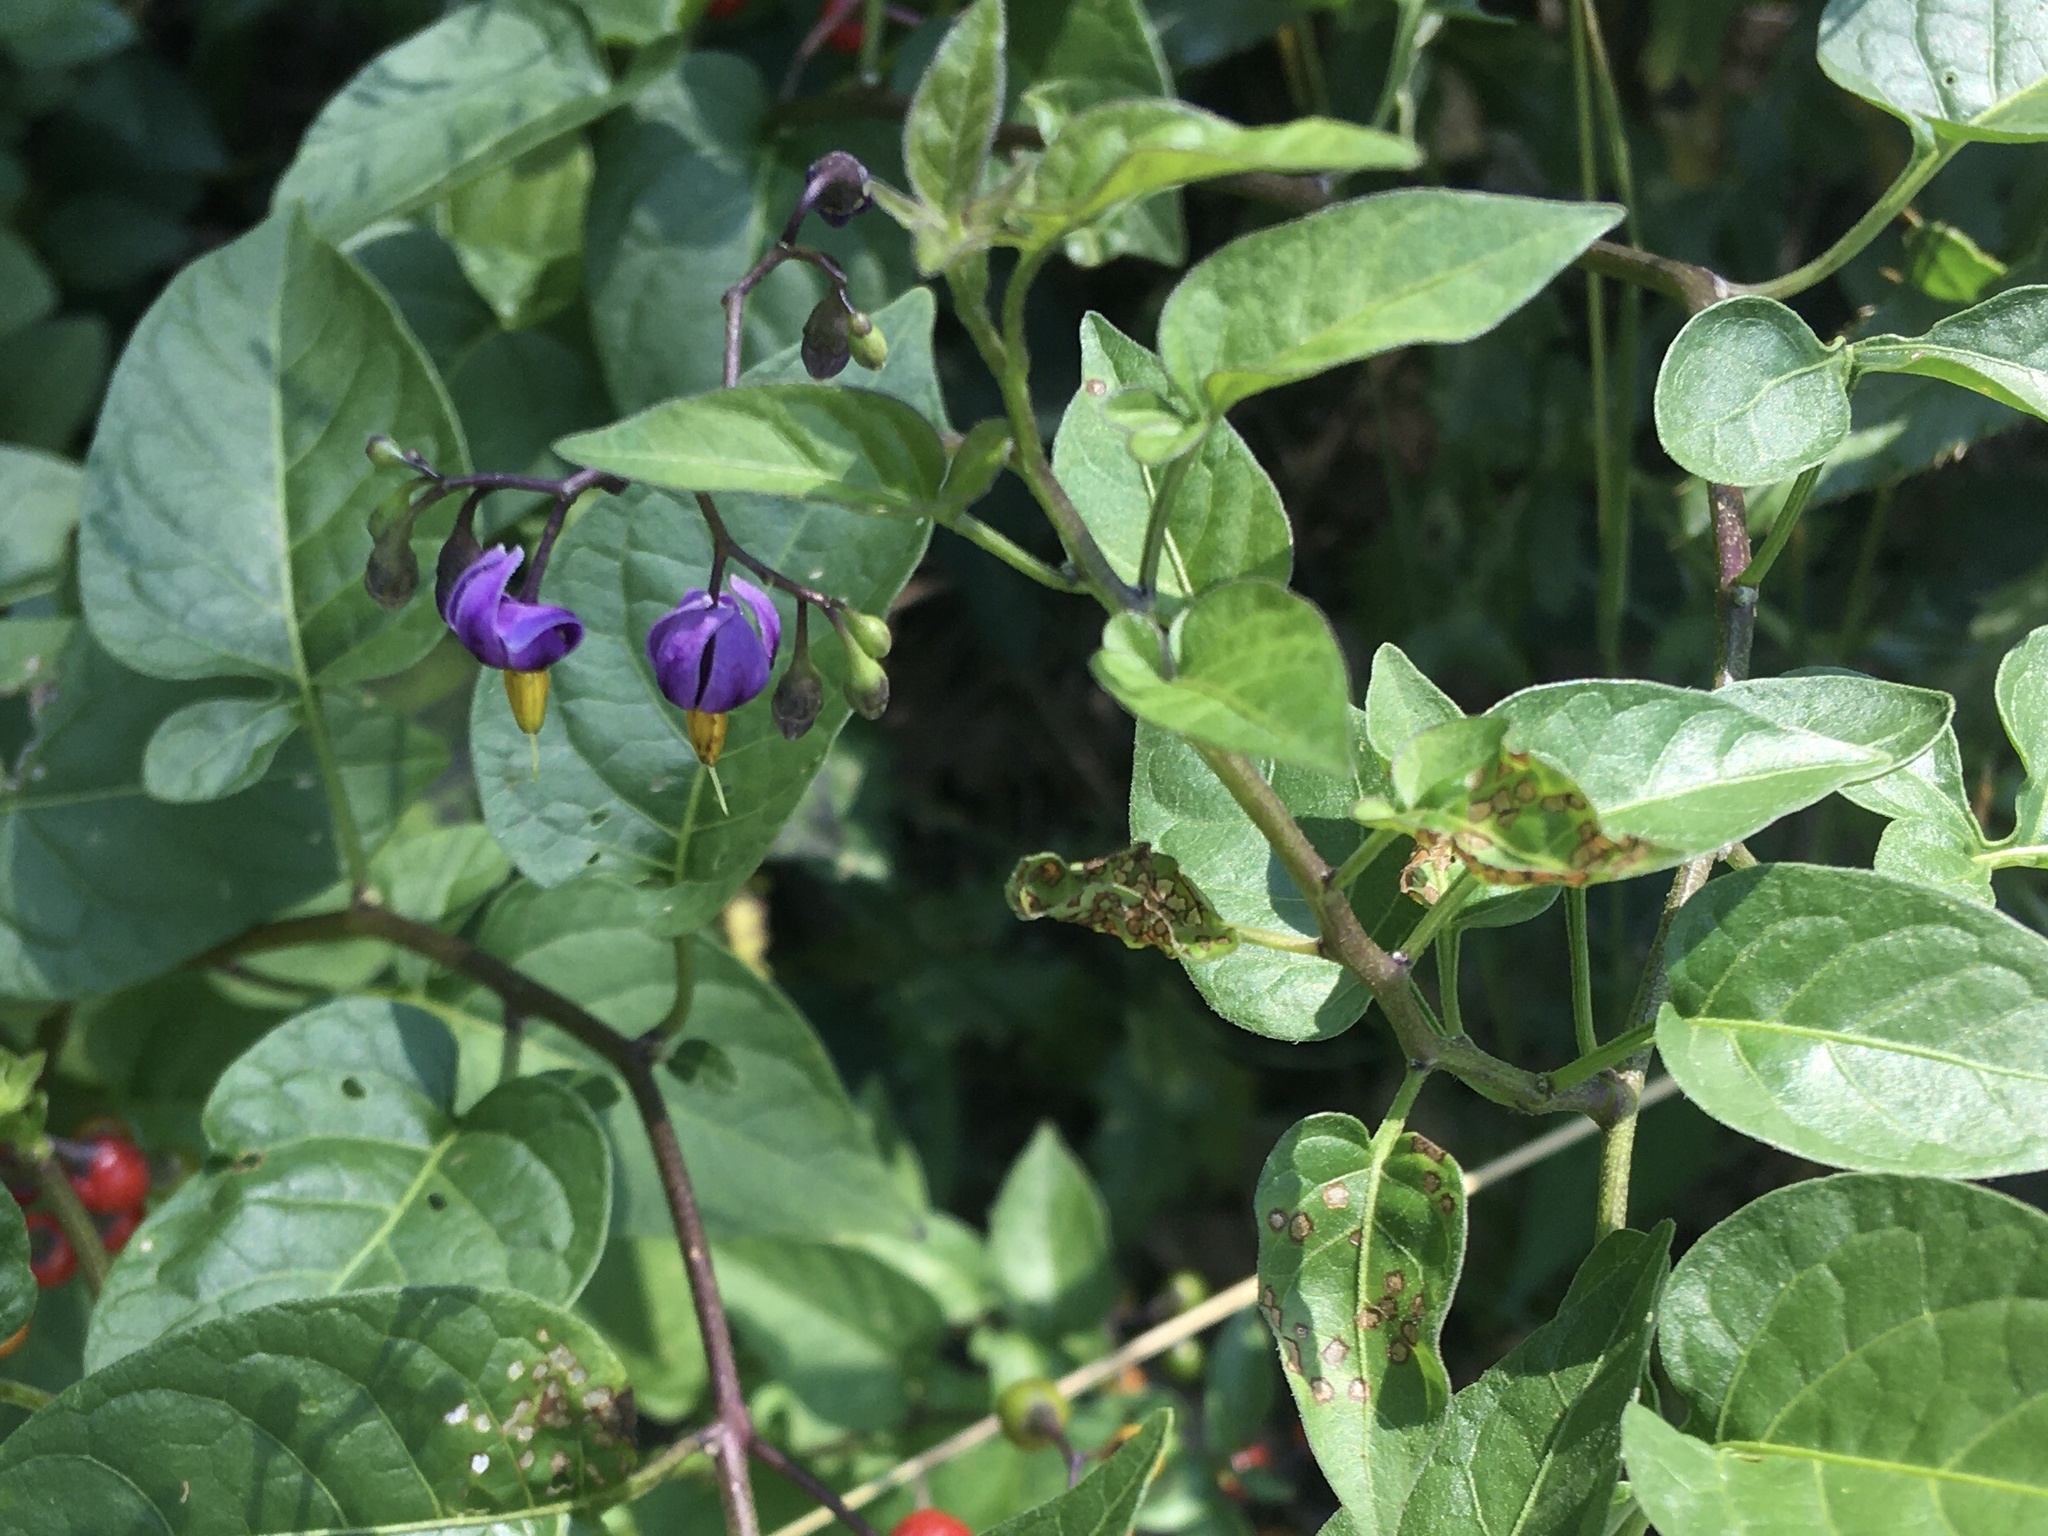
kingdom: Plantae
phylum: Tracheophyta
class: Magnoliopsida
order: Solanales
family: Solanaceae
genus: Solanum
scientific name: Solanum dulcamara
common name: Climbing nightshade
